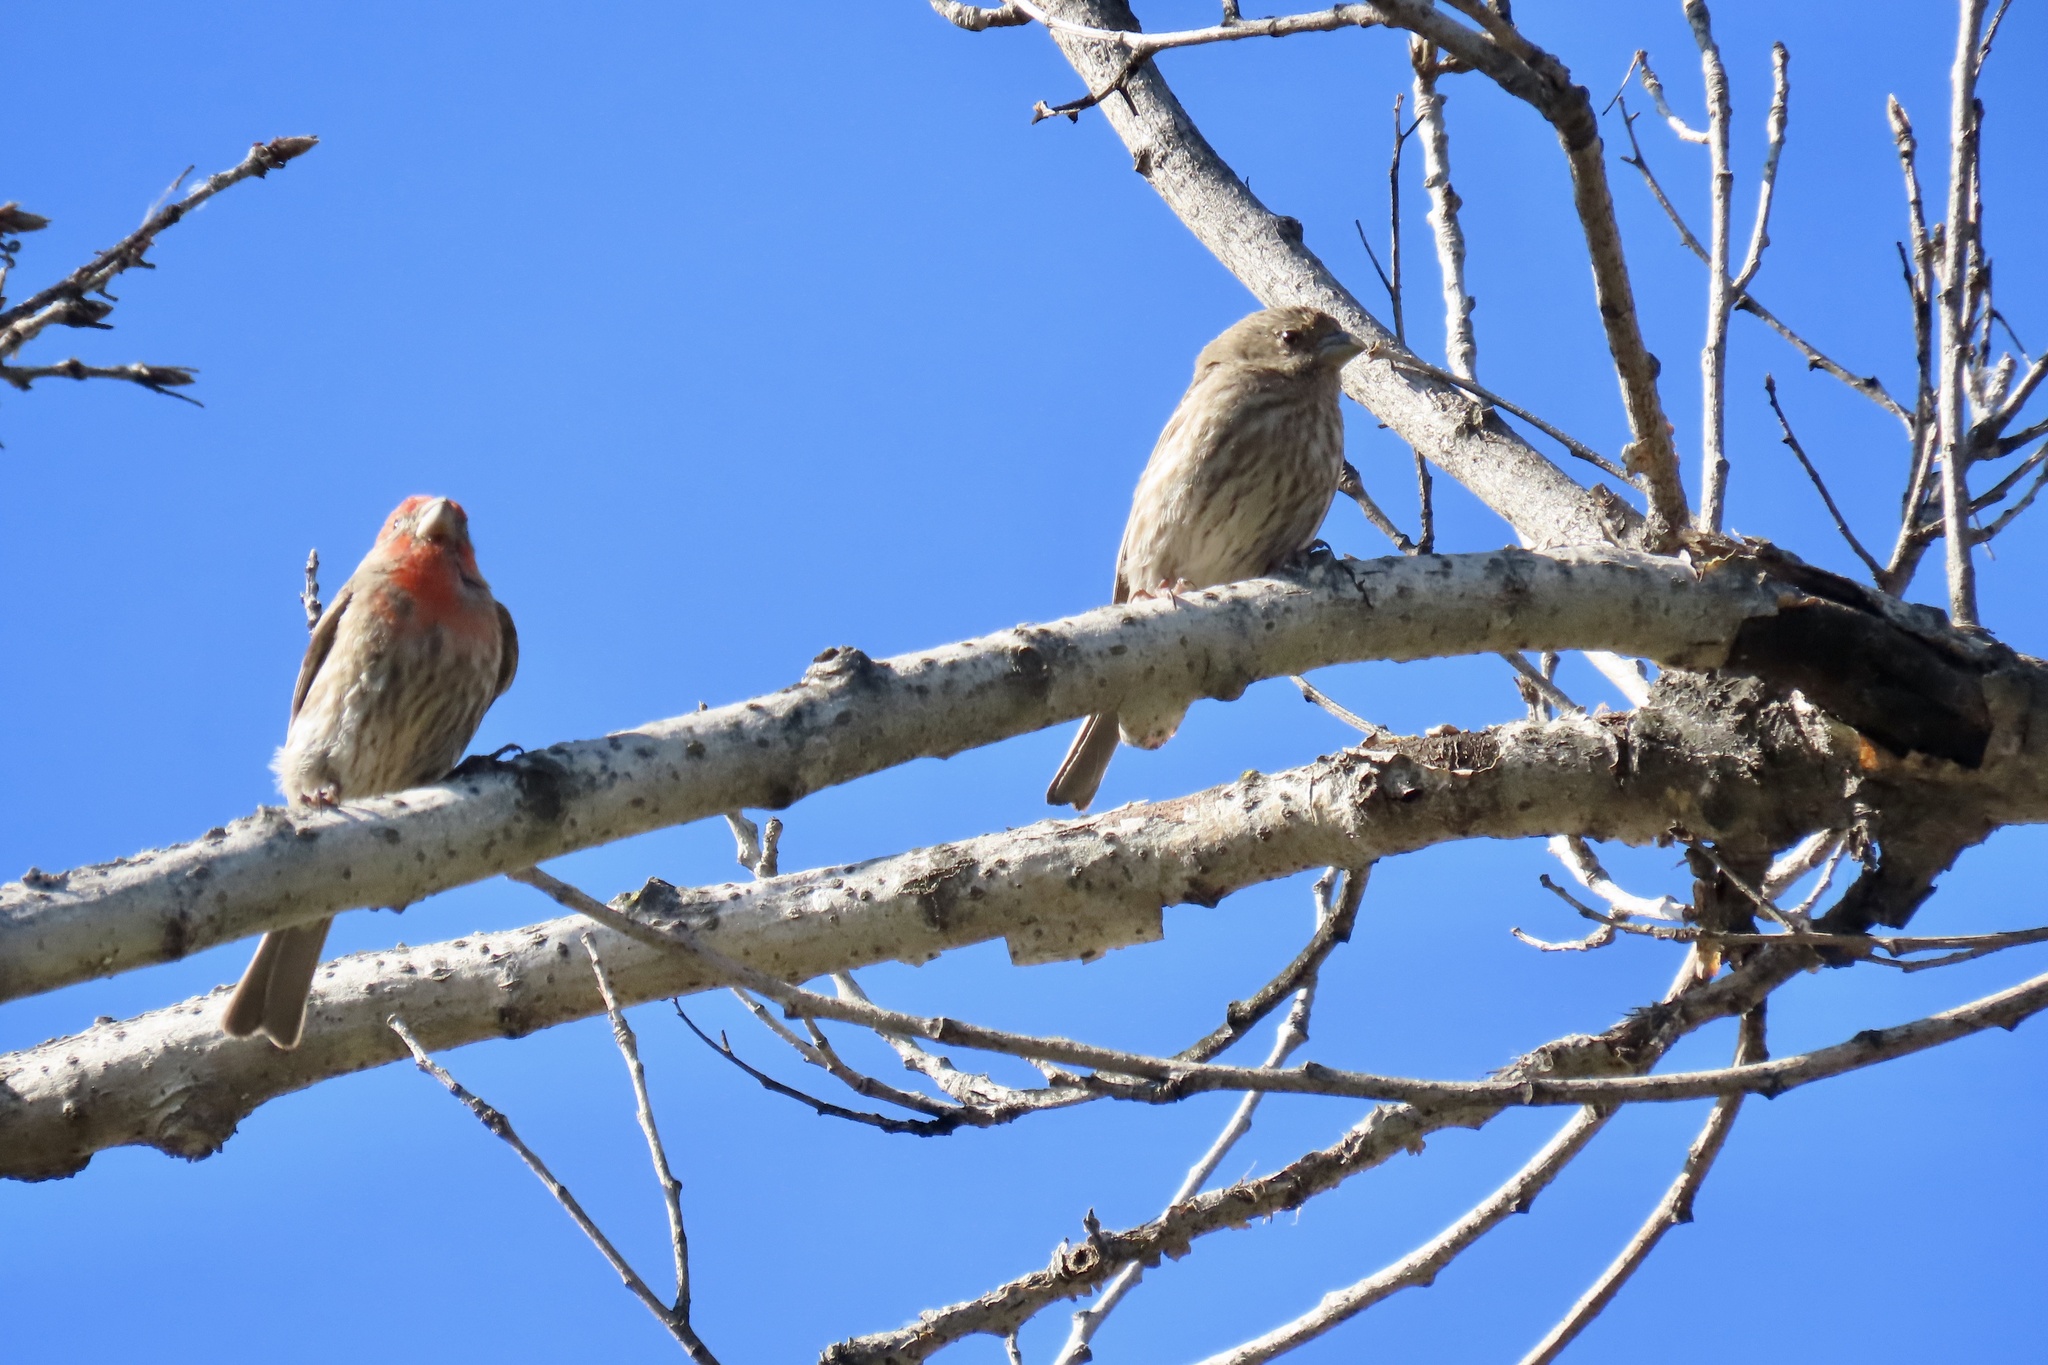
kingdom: Animalia
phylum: Chordata
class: Aves
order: Passeriformes
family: Fringillidae
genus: Haemorhous
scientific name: Haemorhous mexicanus
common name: House finch
